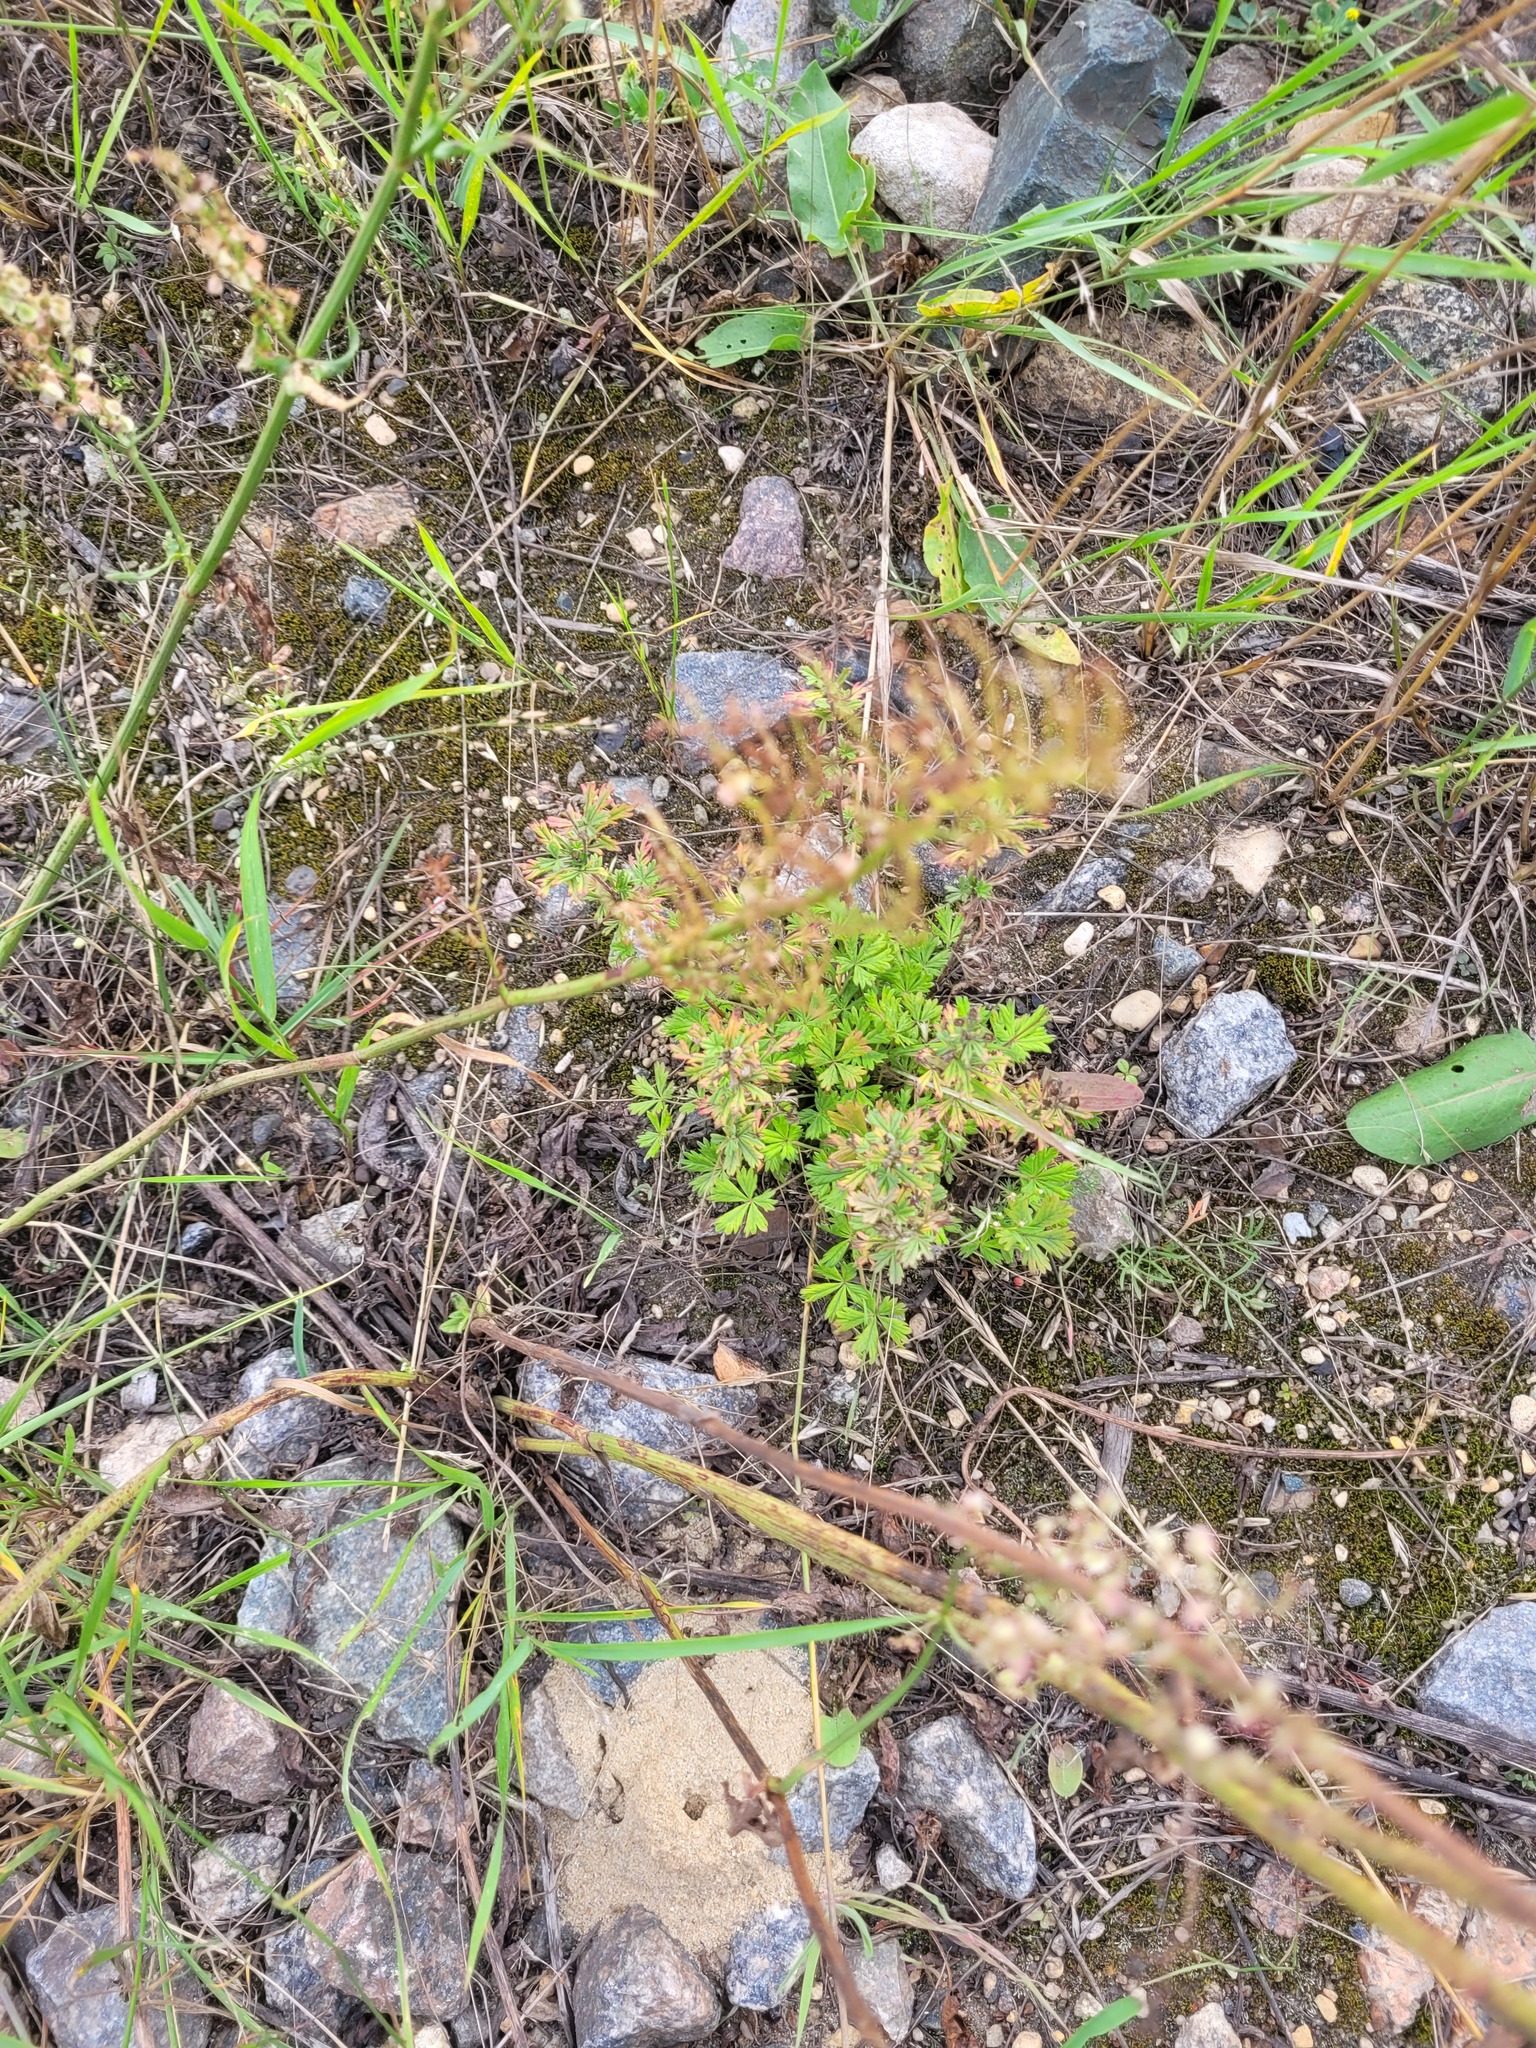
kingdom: Plantae
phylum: Tracheophyta
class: Magnoliopsida
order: Rosales
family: Rosaceae
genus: Potentilla
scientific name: Potentilla argentea
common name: Hoary cinquefoil
